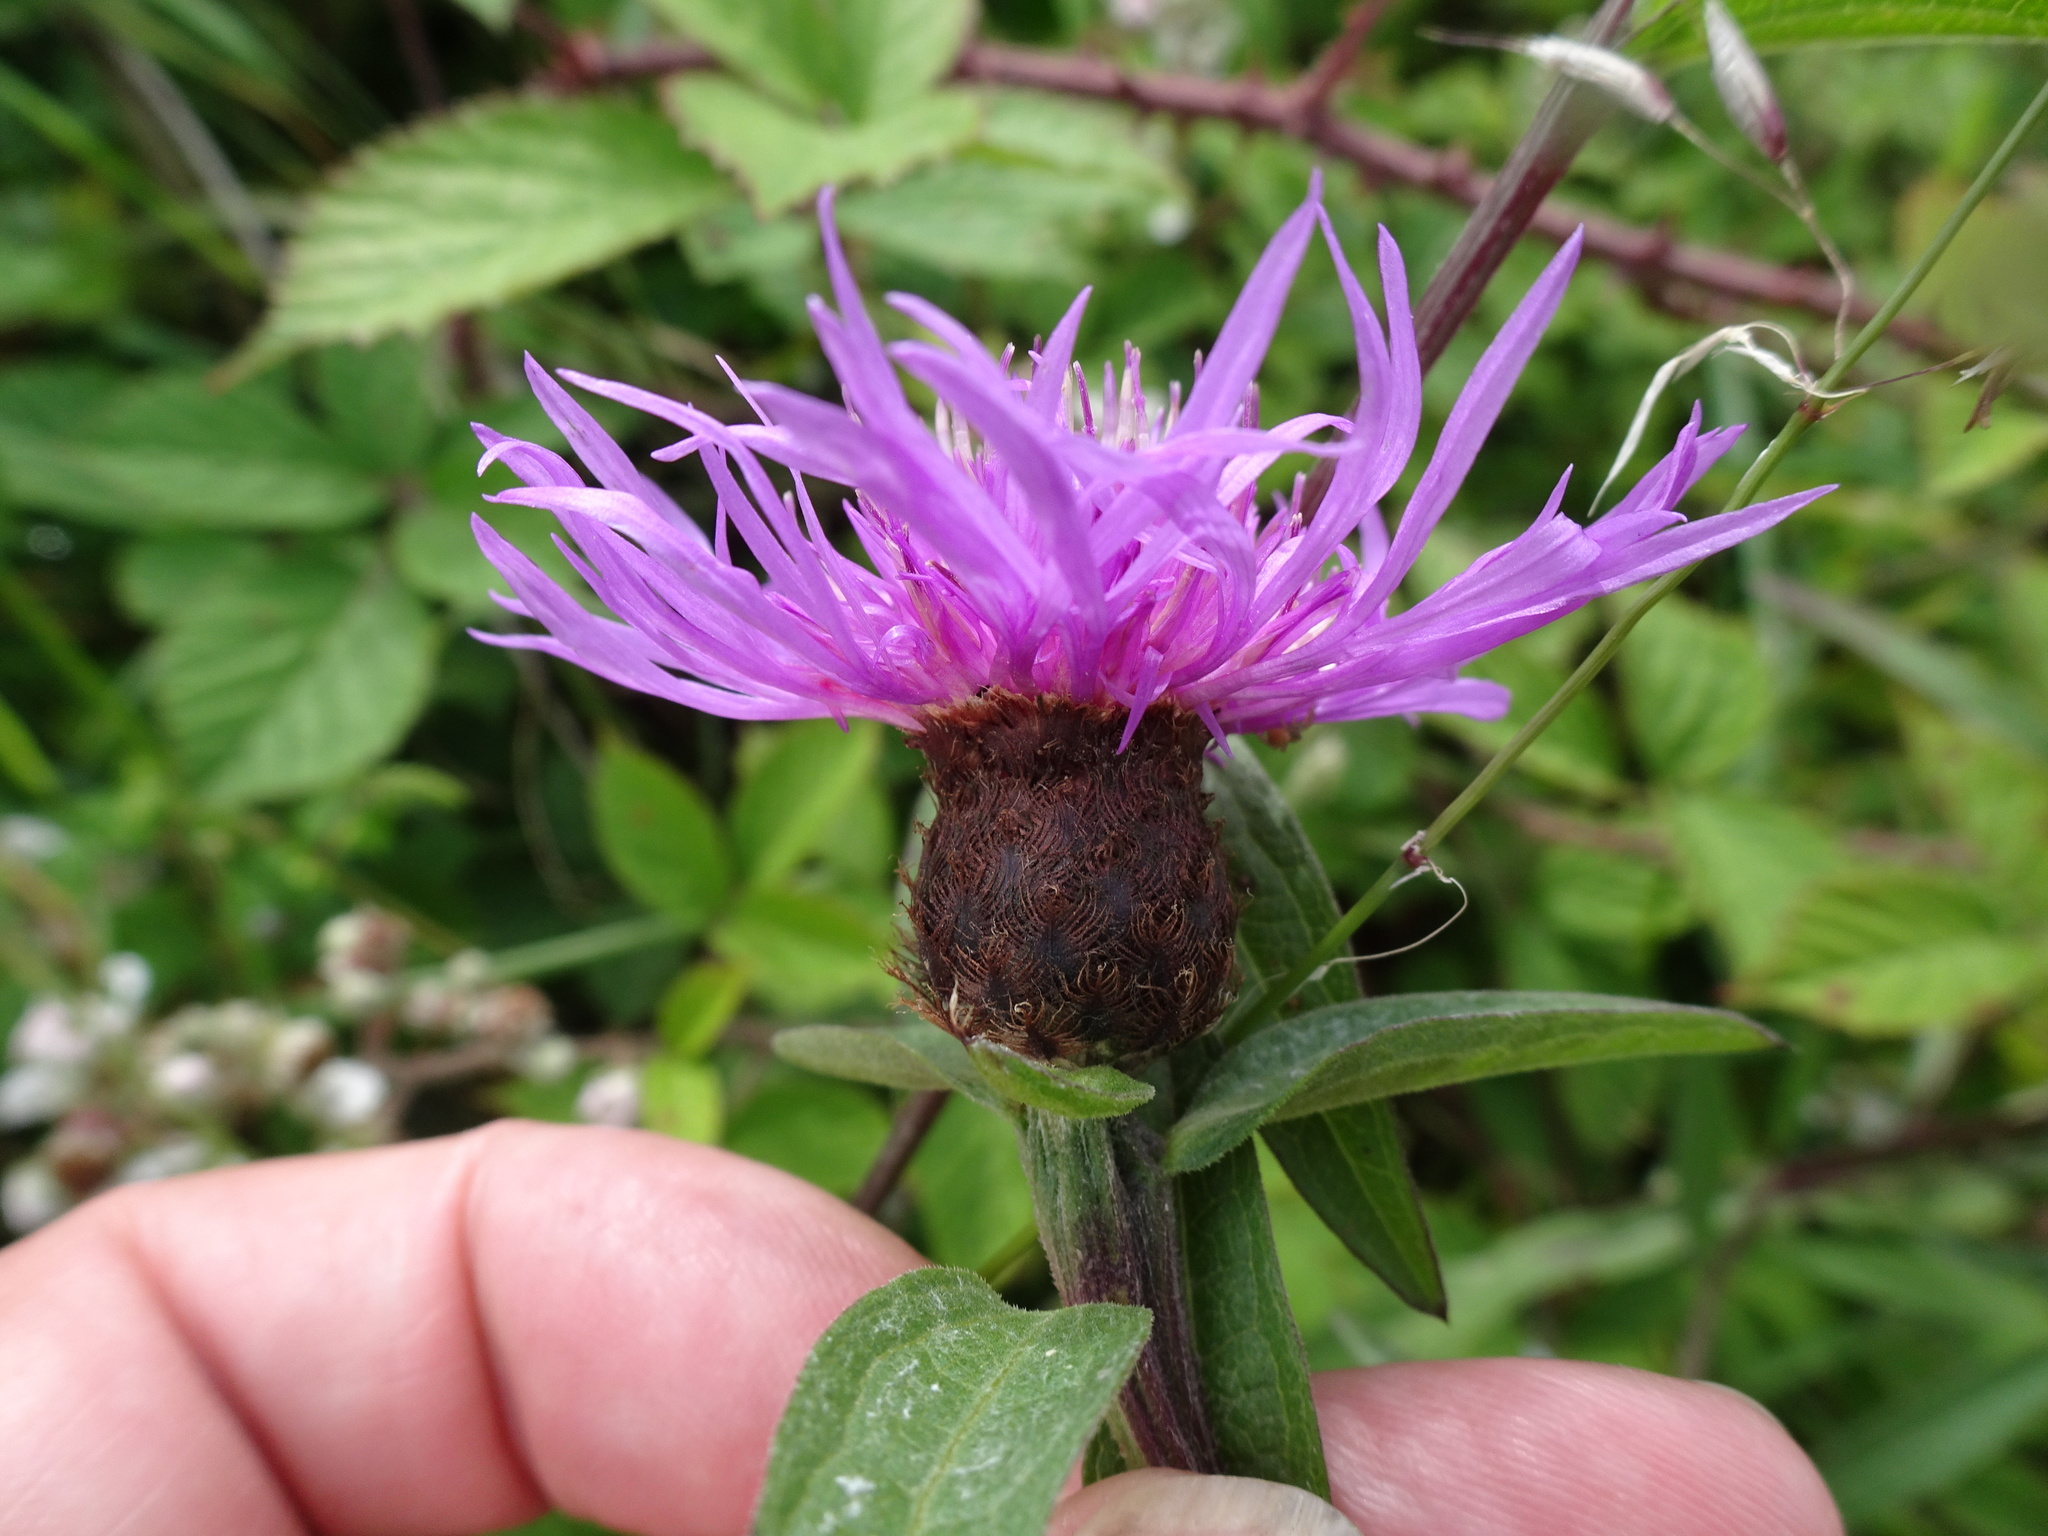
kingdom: Plantae
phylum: Tracheophyta
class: Magnoliopsida
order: Asterales
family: Asteraceae
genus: Centaurea
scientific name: Centaurea nigra
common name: Lesser knapweed
